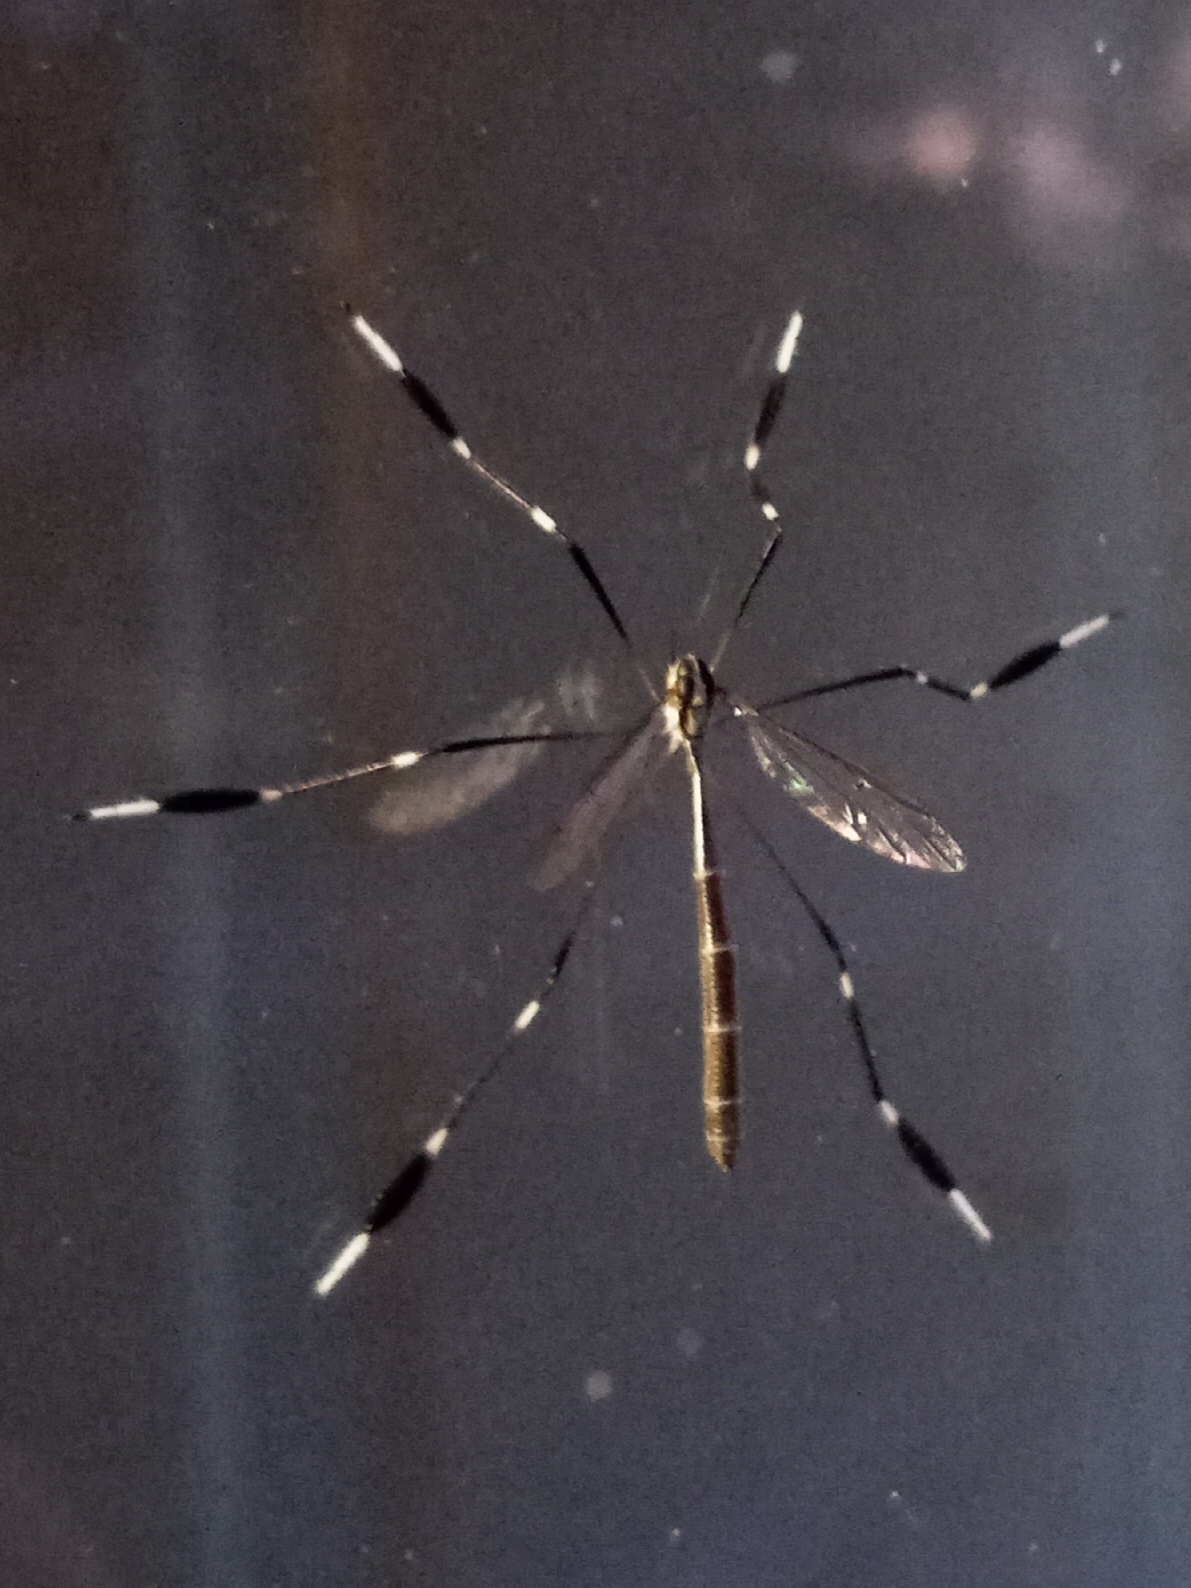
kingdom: Animalia
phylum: Arthropoda
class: Insecta
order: Diptera
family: Ptychopteridae
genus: Bittacomorpha
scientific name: Bittacomorpha clavipes
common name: Eastern phantom crane fly
